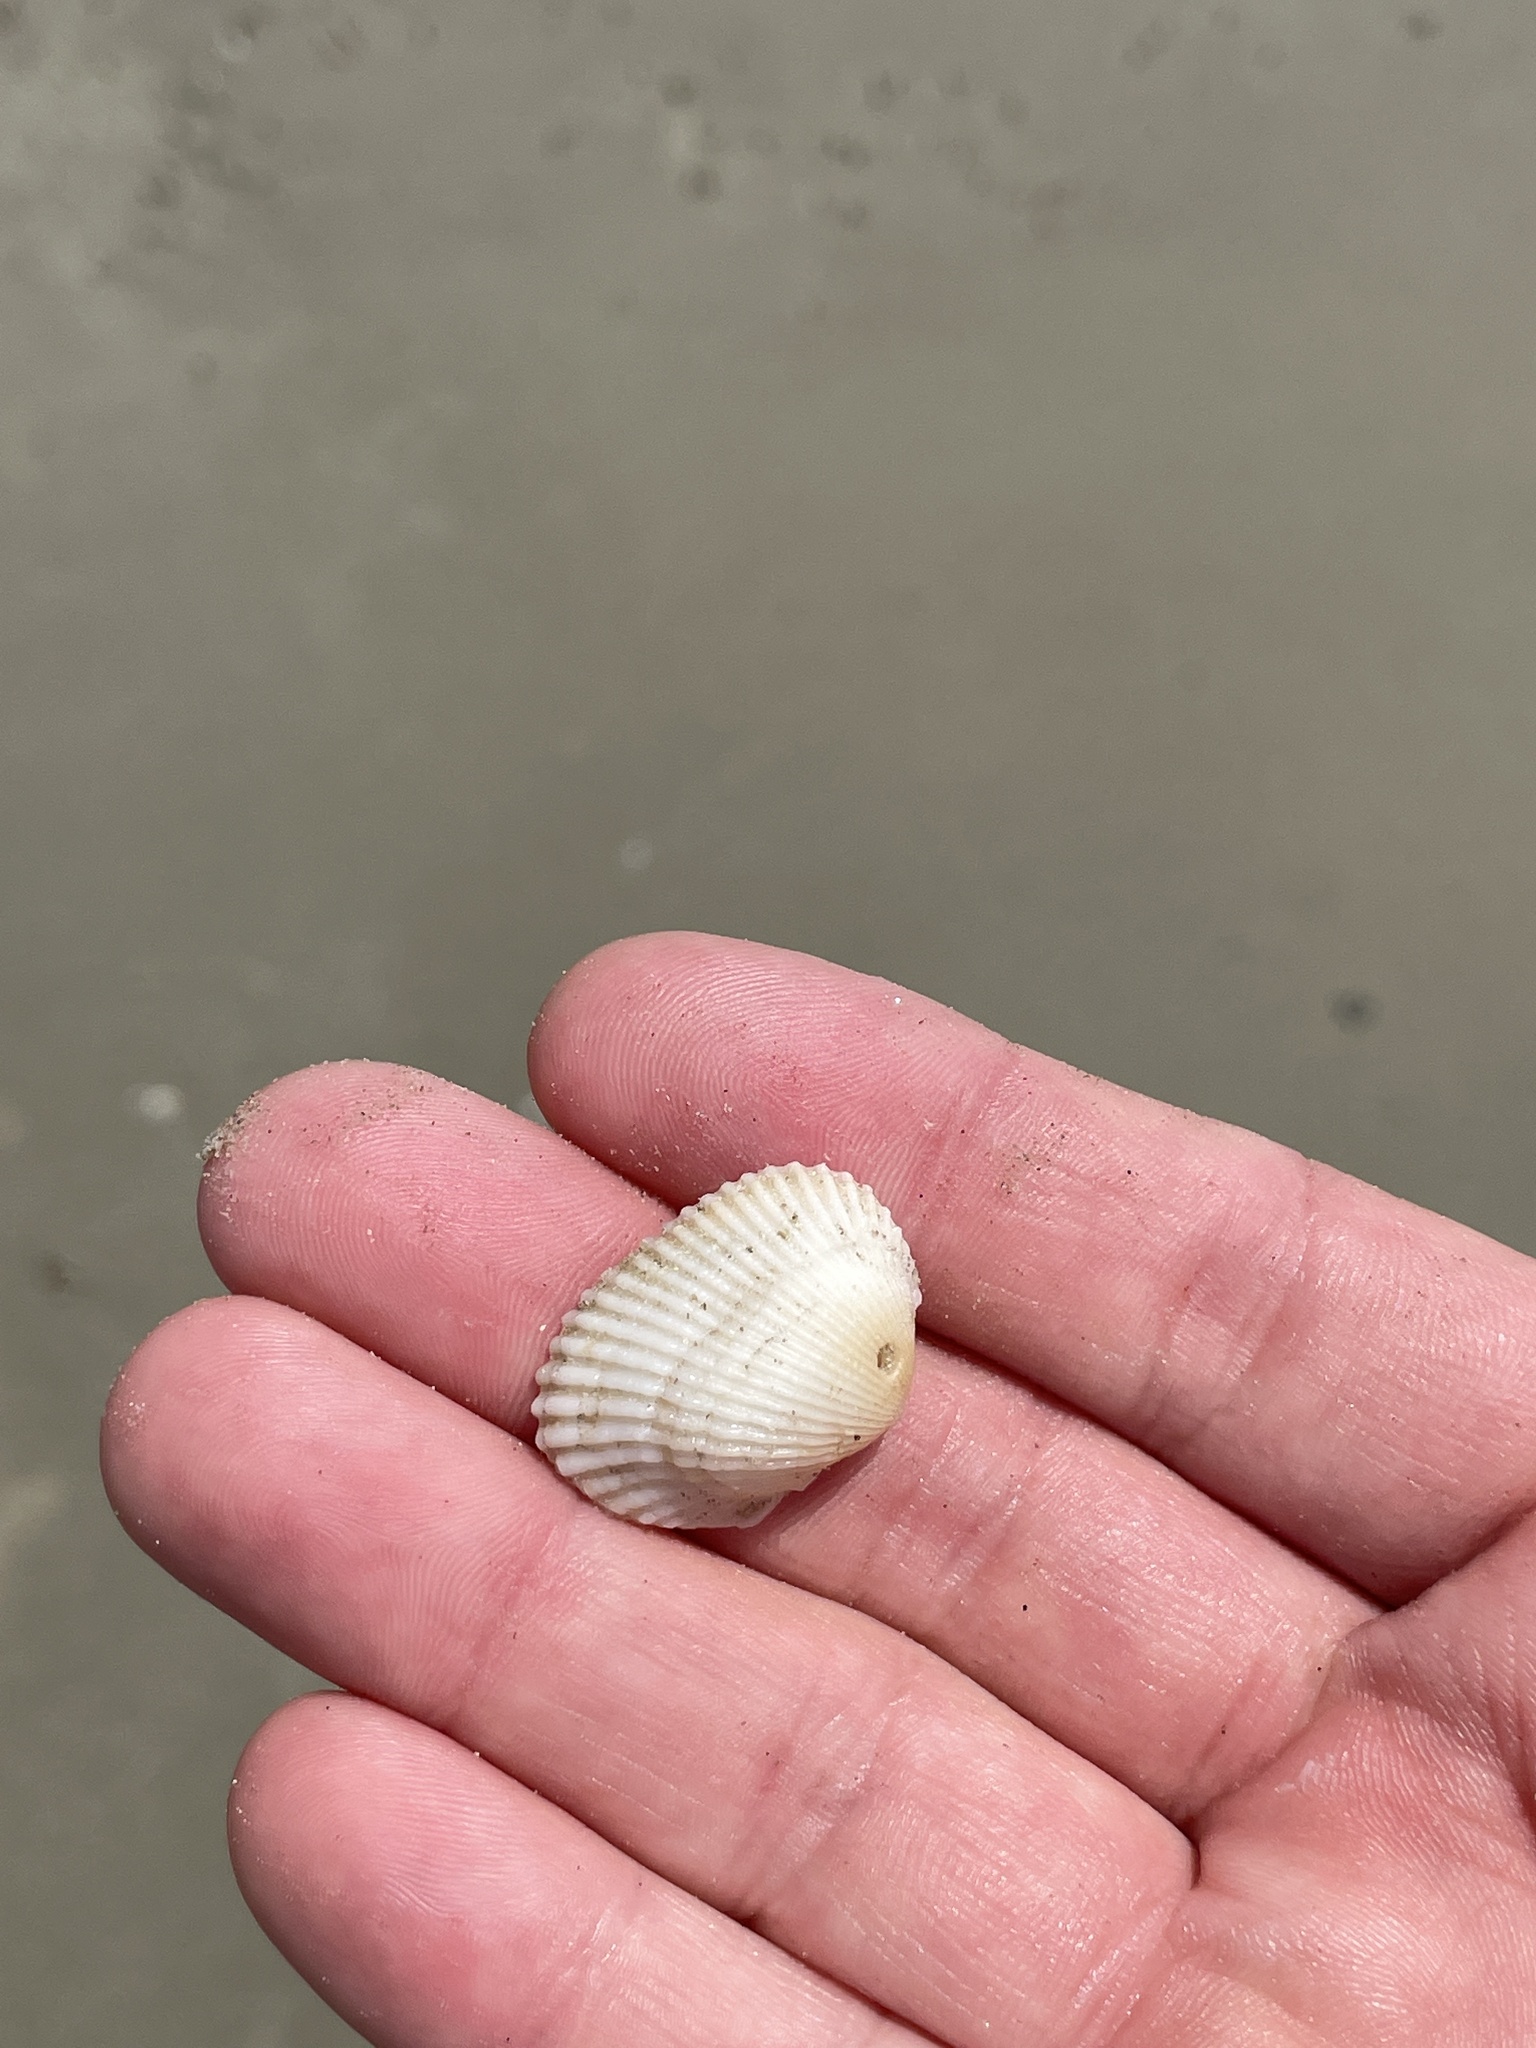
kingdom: Animalia
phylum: Mollusca
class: Bivalvia
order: Arcida
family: Arcidae
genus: Anadara
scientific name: Anadara transversa
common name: Transverse ark
